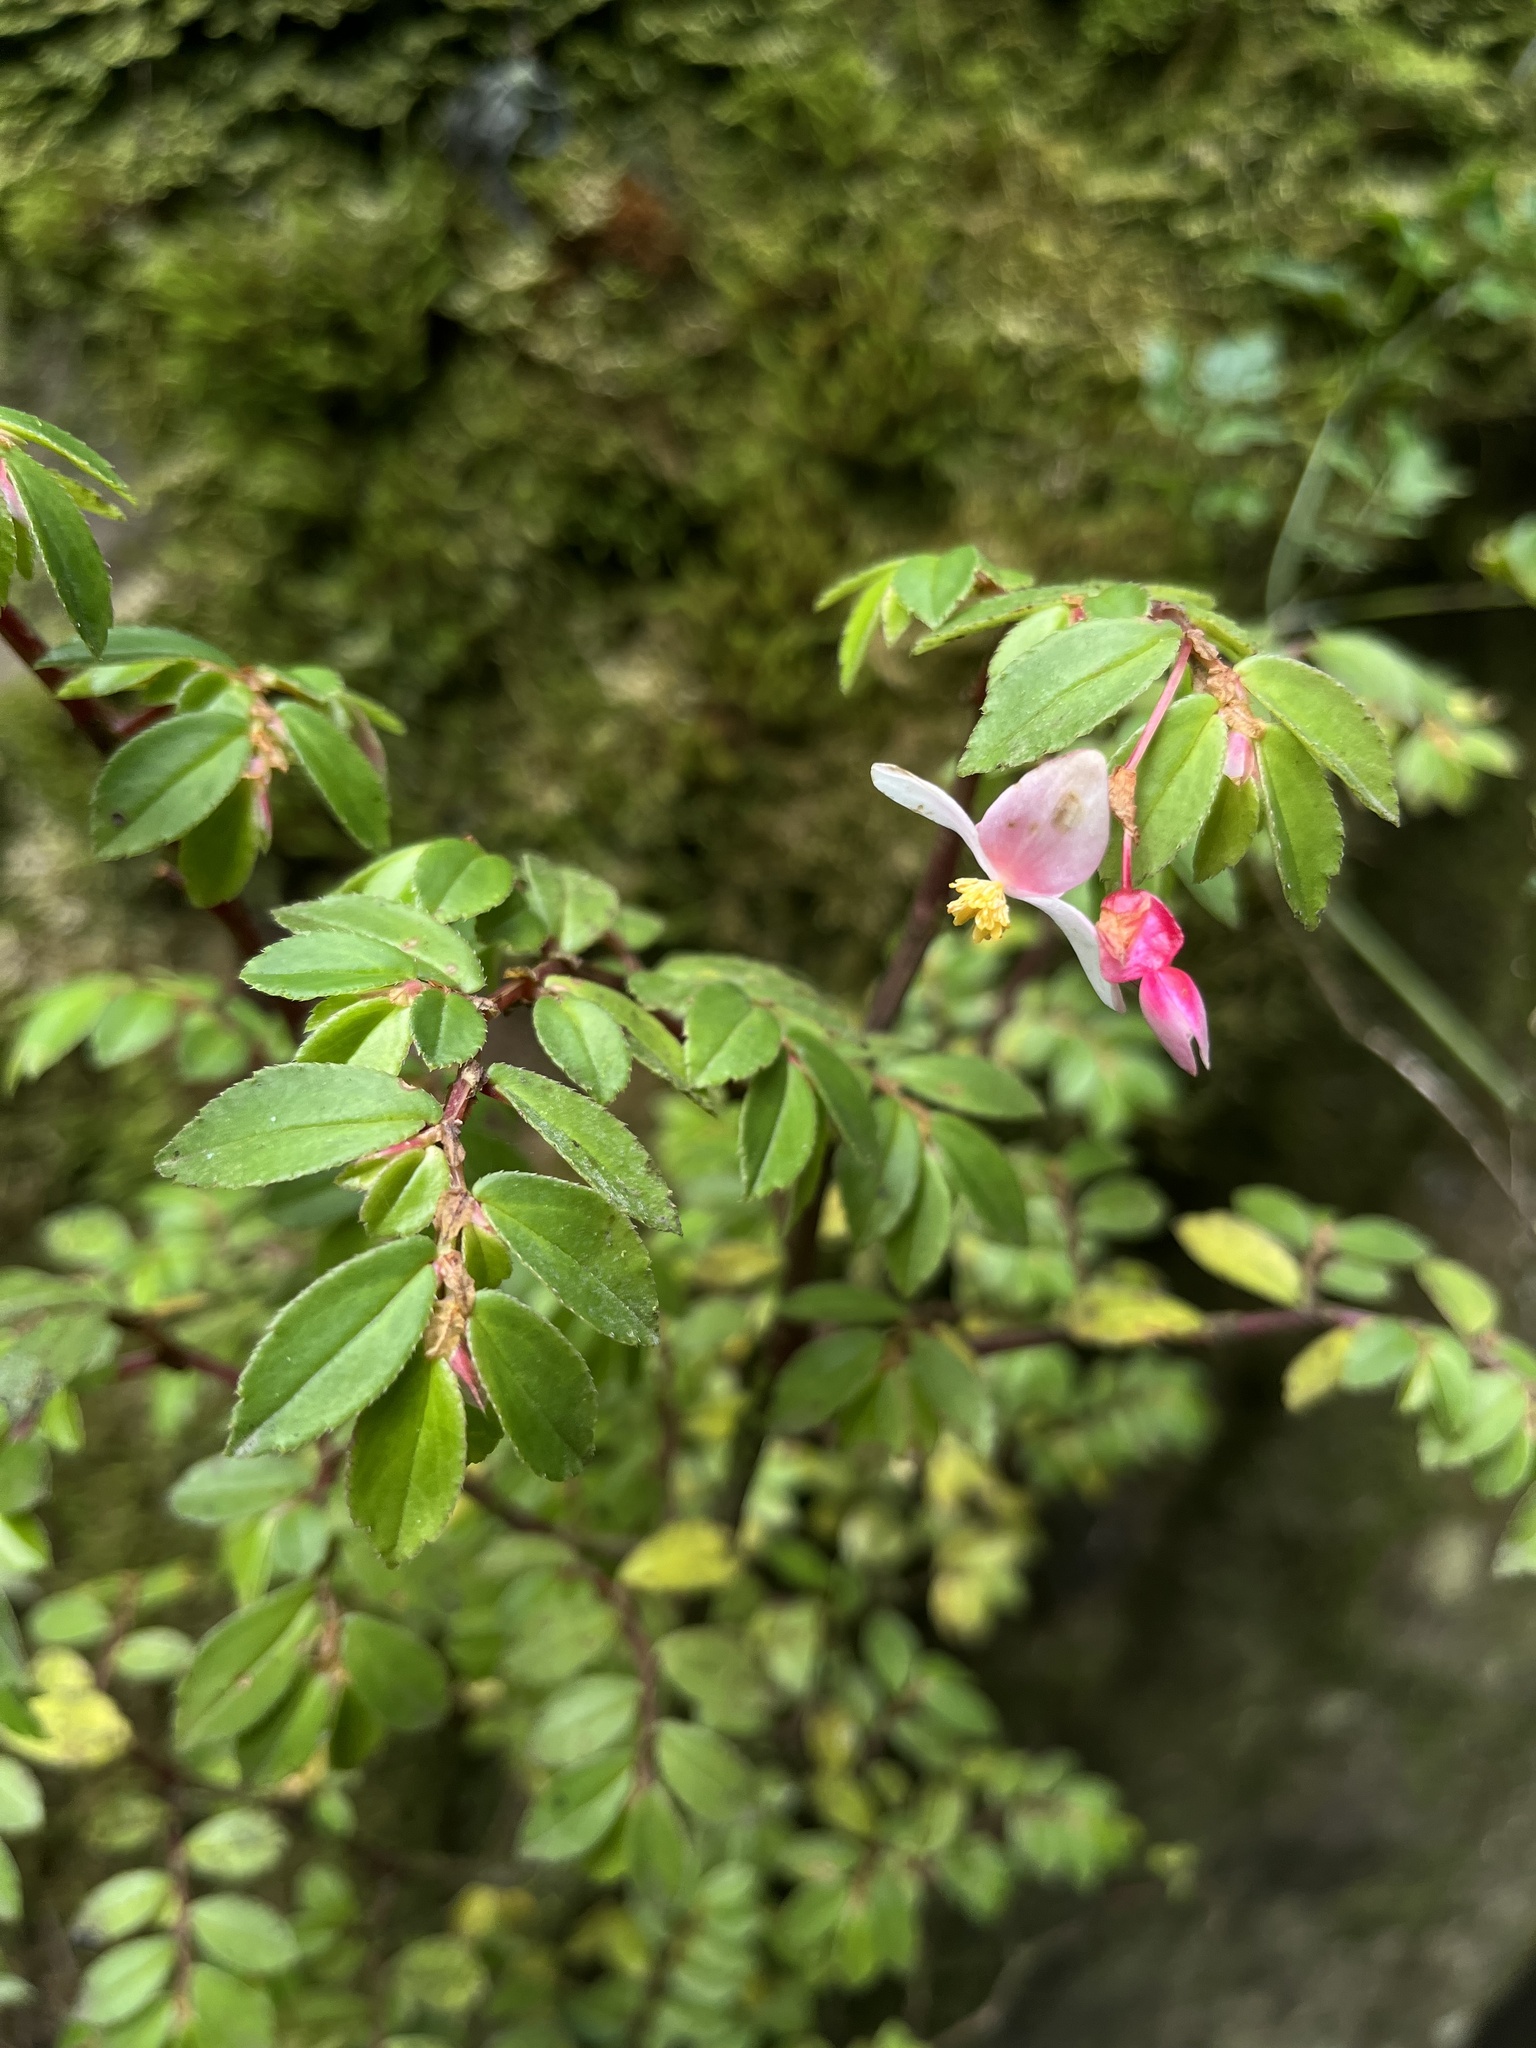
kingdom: Plantae
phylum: Tracheophyta
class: Magnoliopsida
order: Cucurbitales
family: Begoniaceae
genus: Begonia
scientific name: Begonia foliosa
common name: Fern begonia
